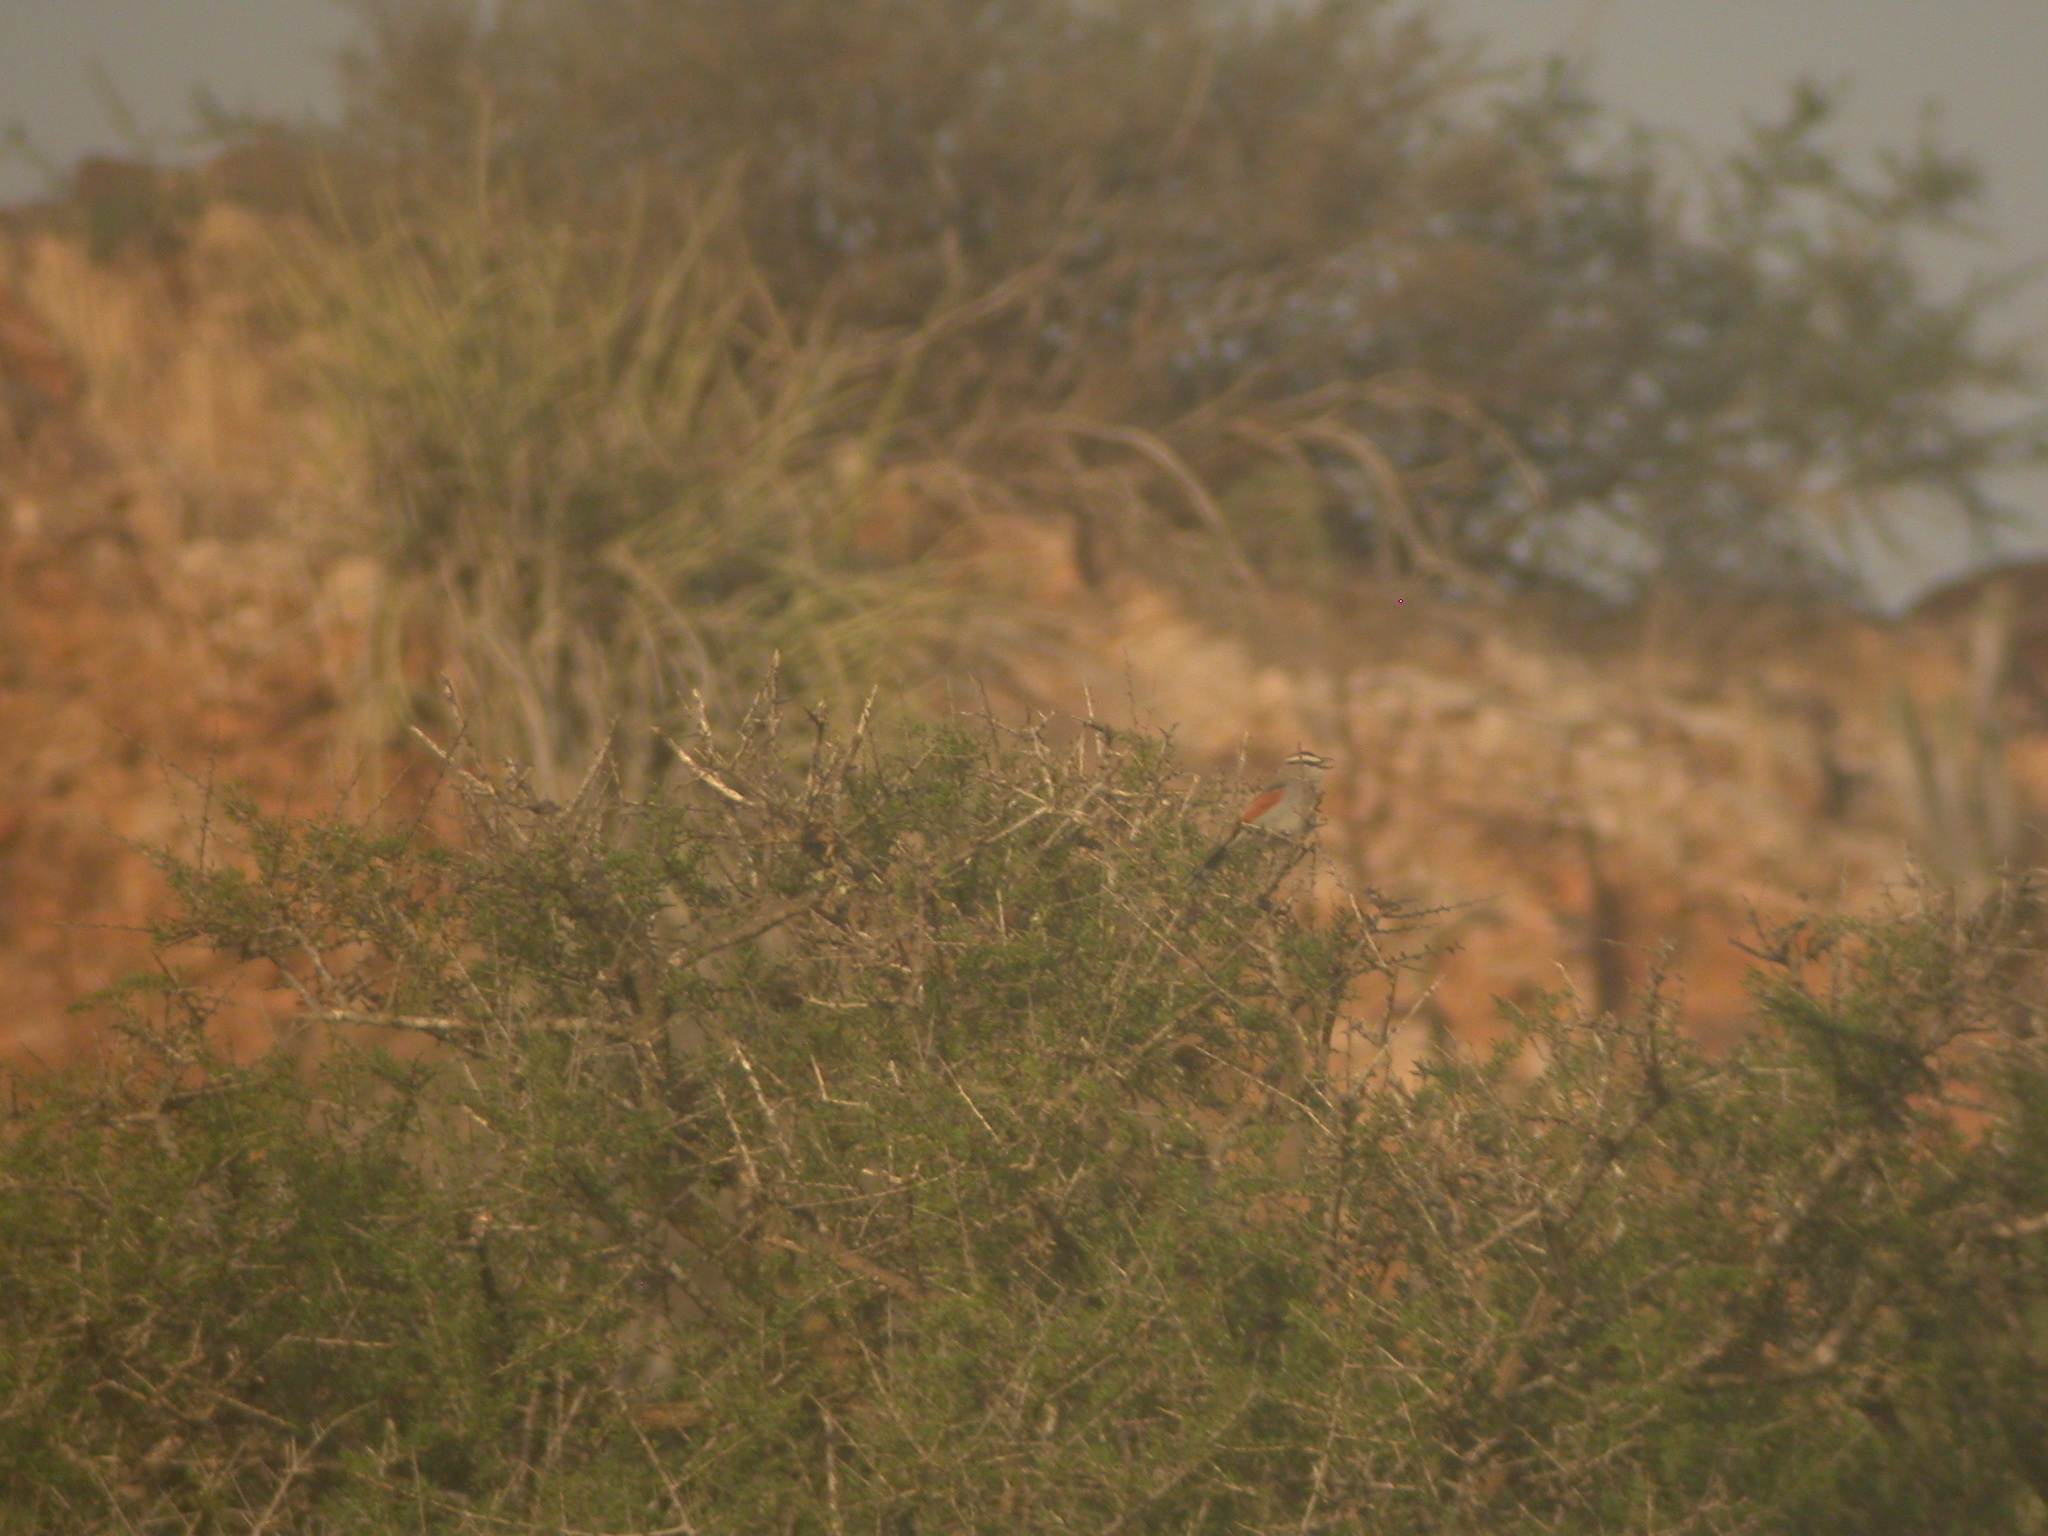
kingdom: Animalia
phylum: Chordata
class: Aves
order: Passeriformes
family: Malaconotidae
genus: Tchagra
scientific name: Tchagra senegalus
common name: Black-crowned tchagra
